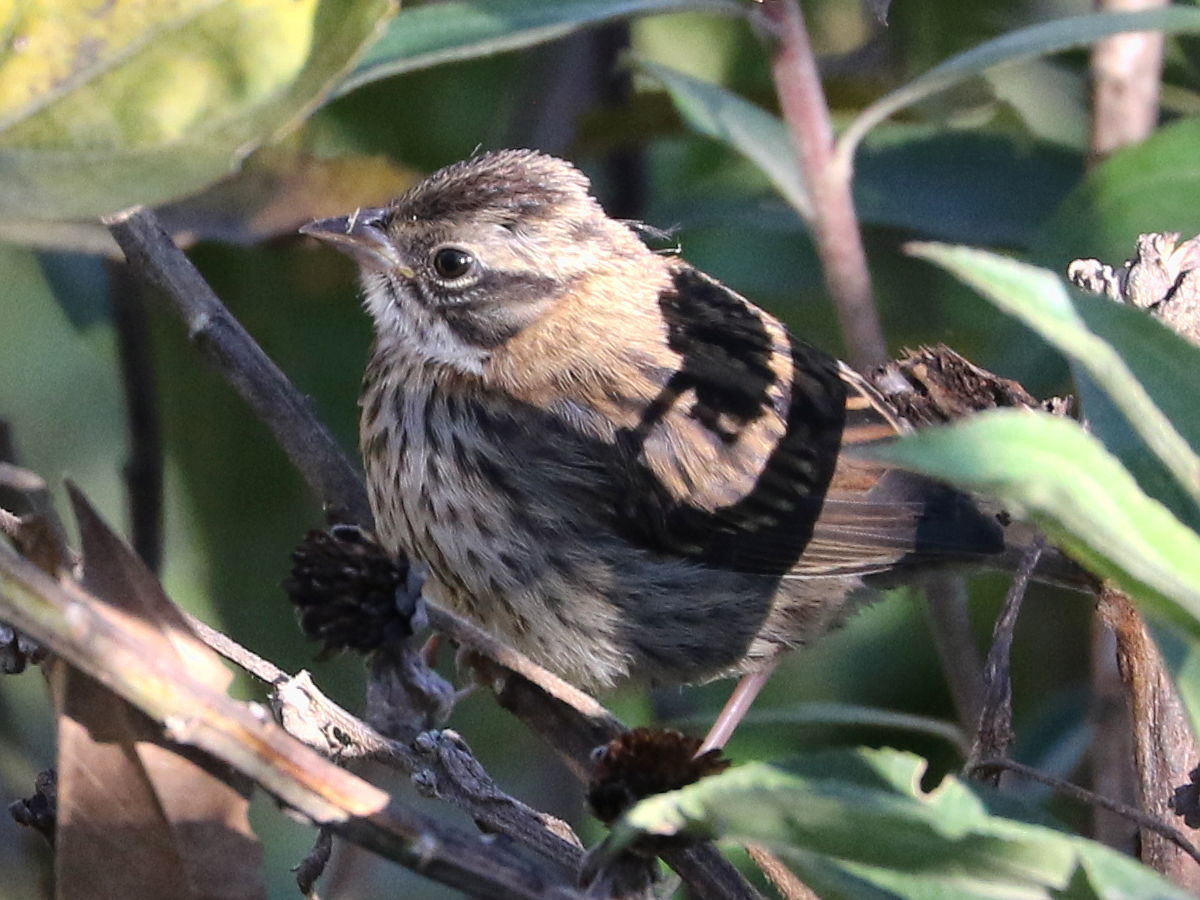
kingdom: Animalia
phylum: Chordata
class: Aves
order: Passeriformes
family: Passerellidae
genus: Zonotrichia
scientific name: Zonotrichia capensis
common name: Rufous-collared sparrow
